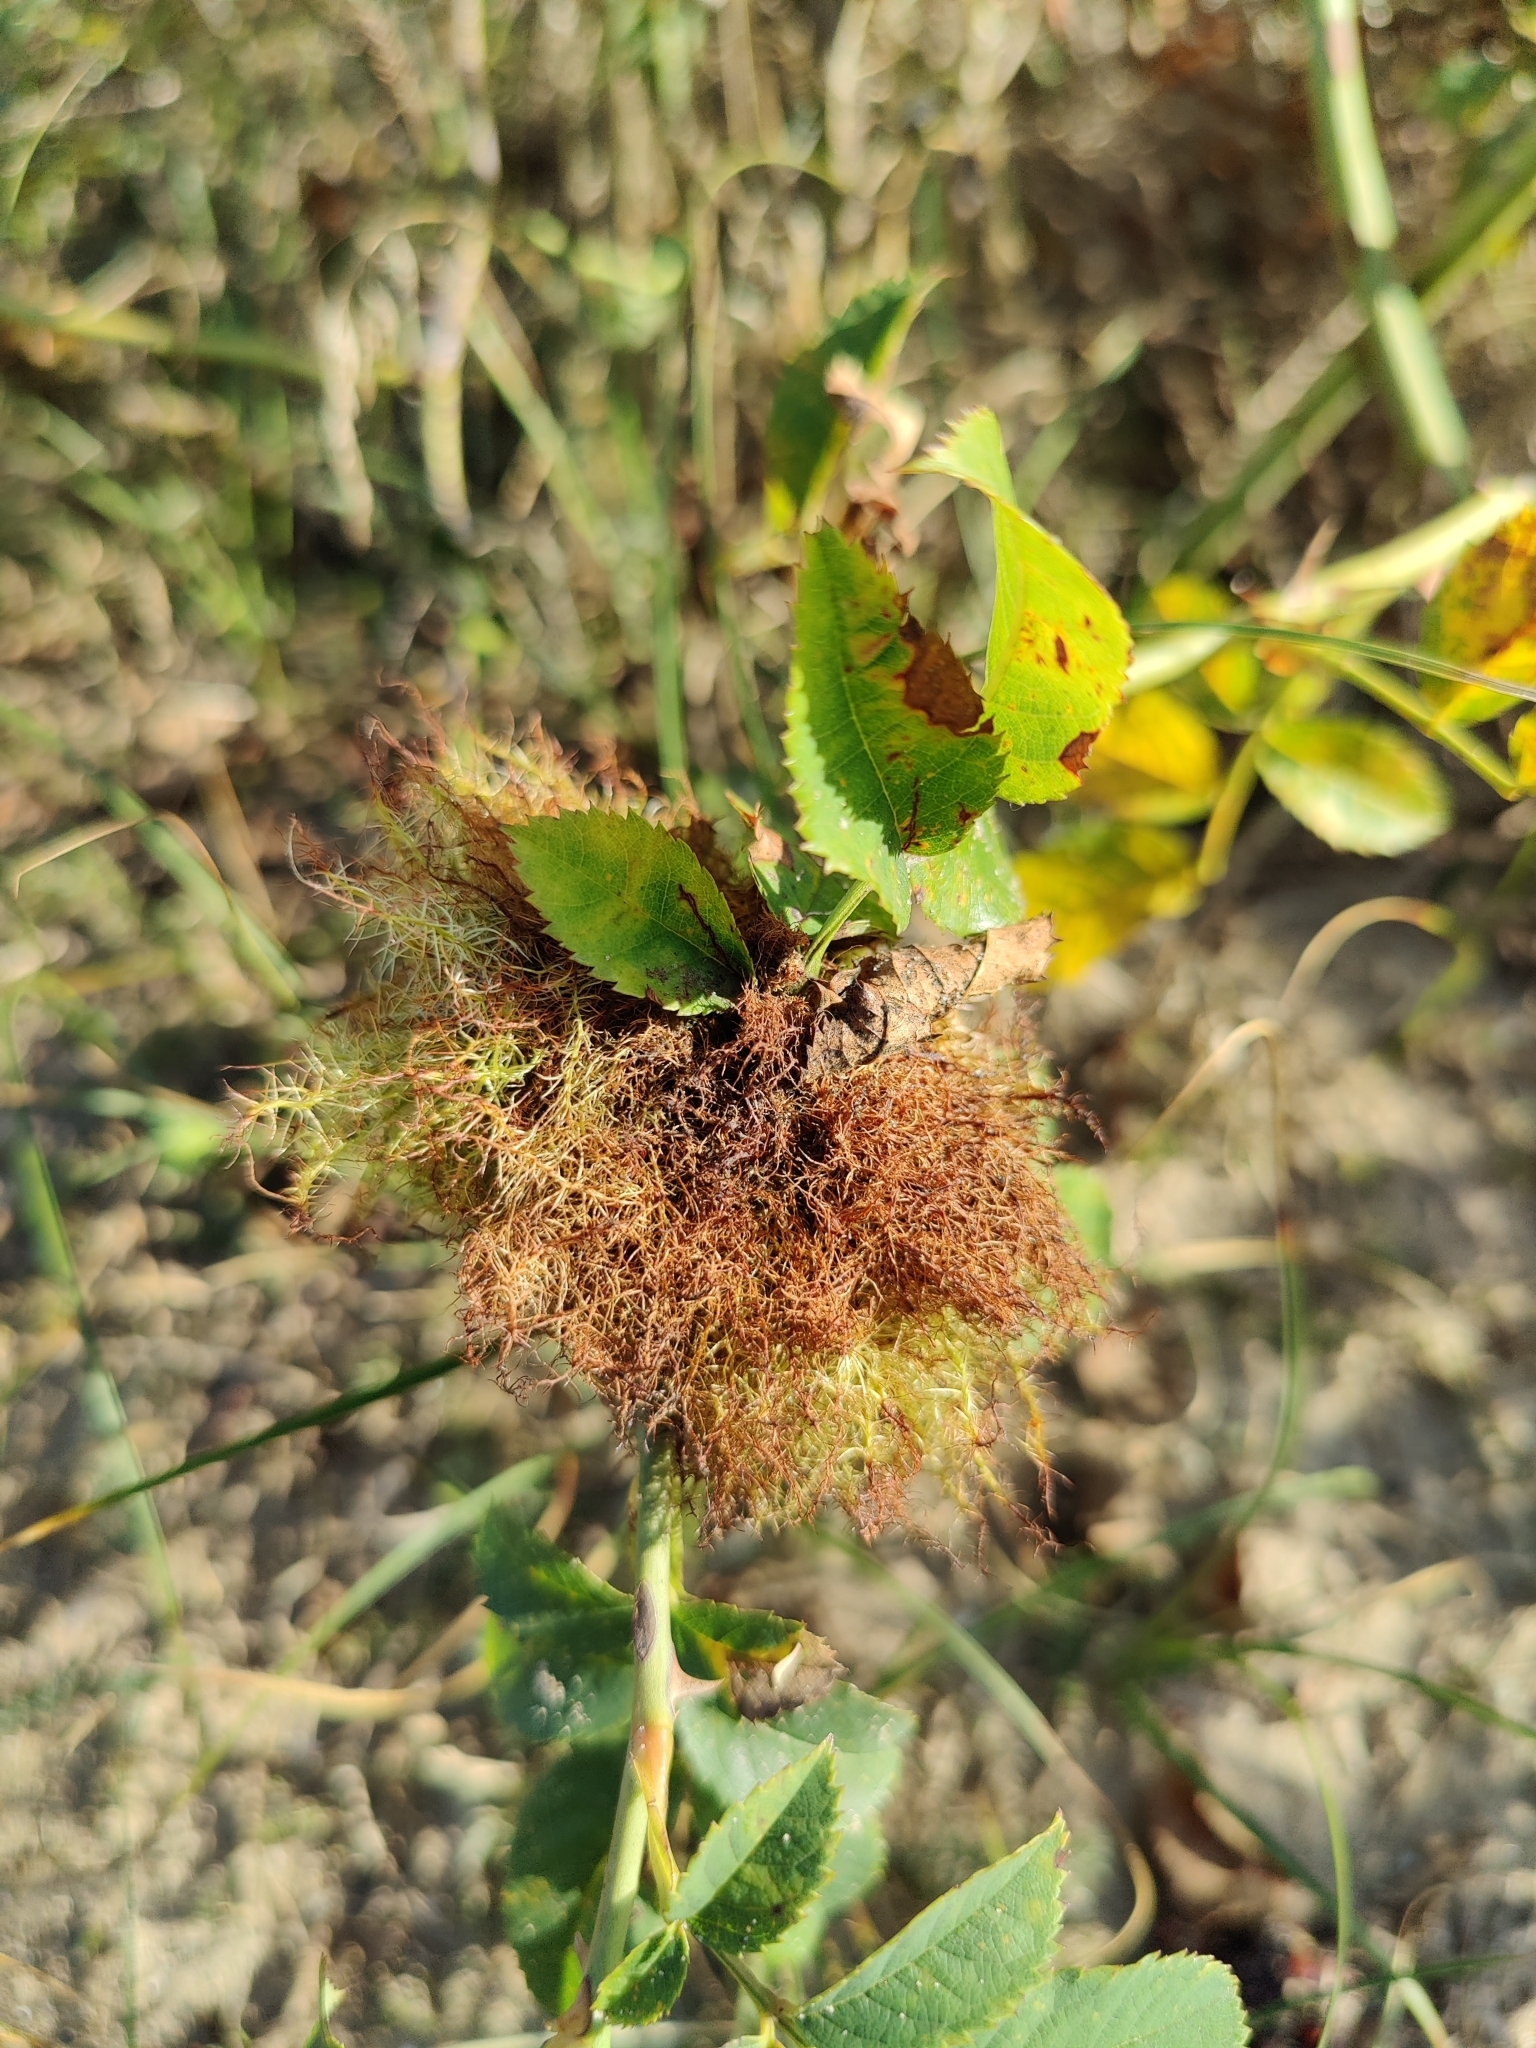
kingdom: Animalia
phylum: Arthropoda
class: Insecta
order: Hymenoptera
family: Cynipidae
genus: Diplolepis
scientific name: Diplolepis rosae
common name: Bedeguar gall
